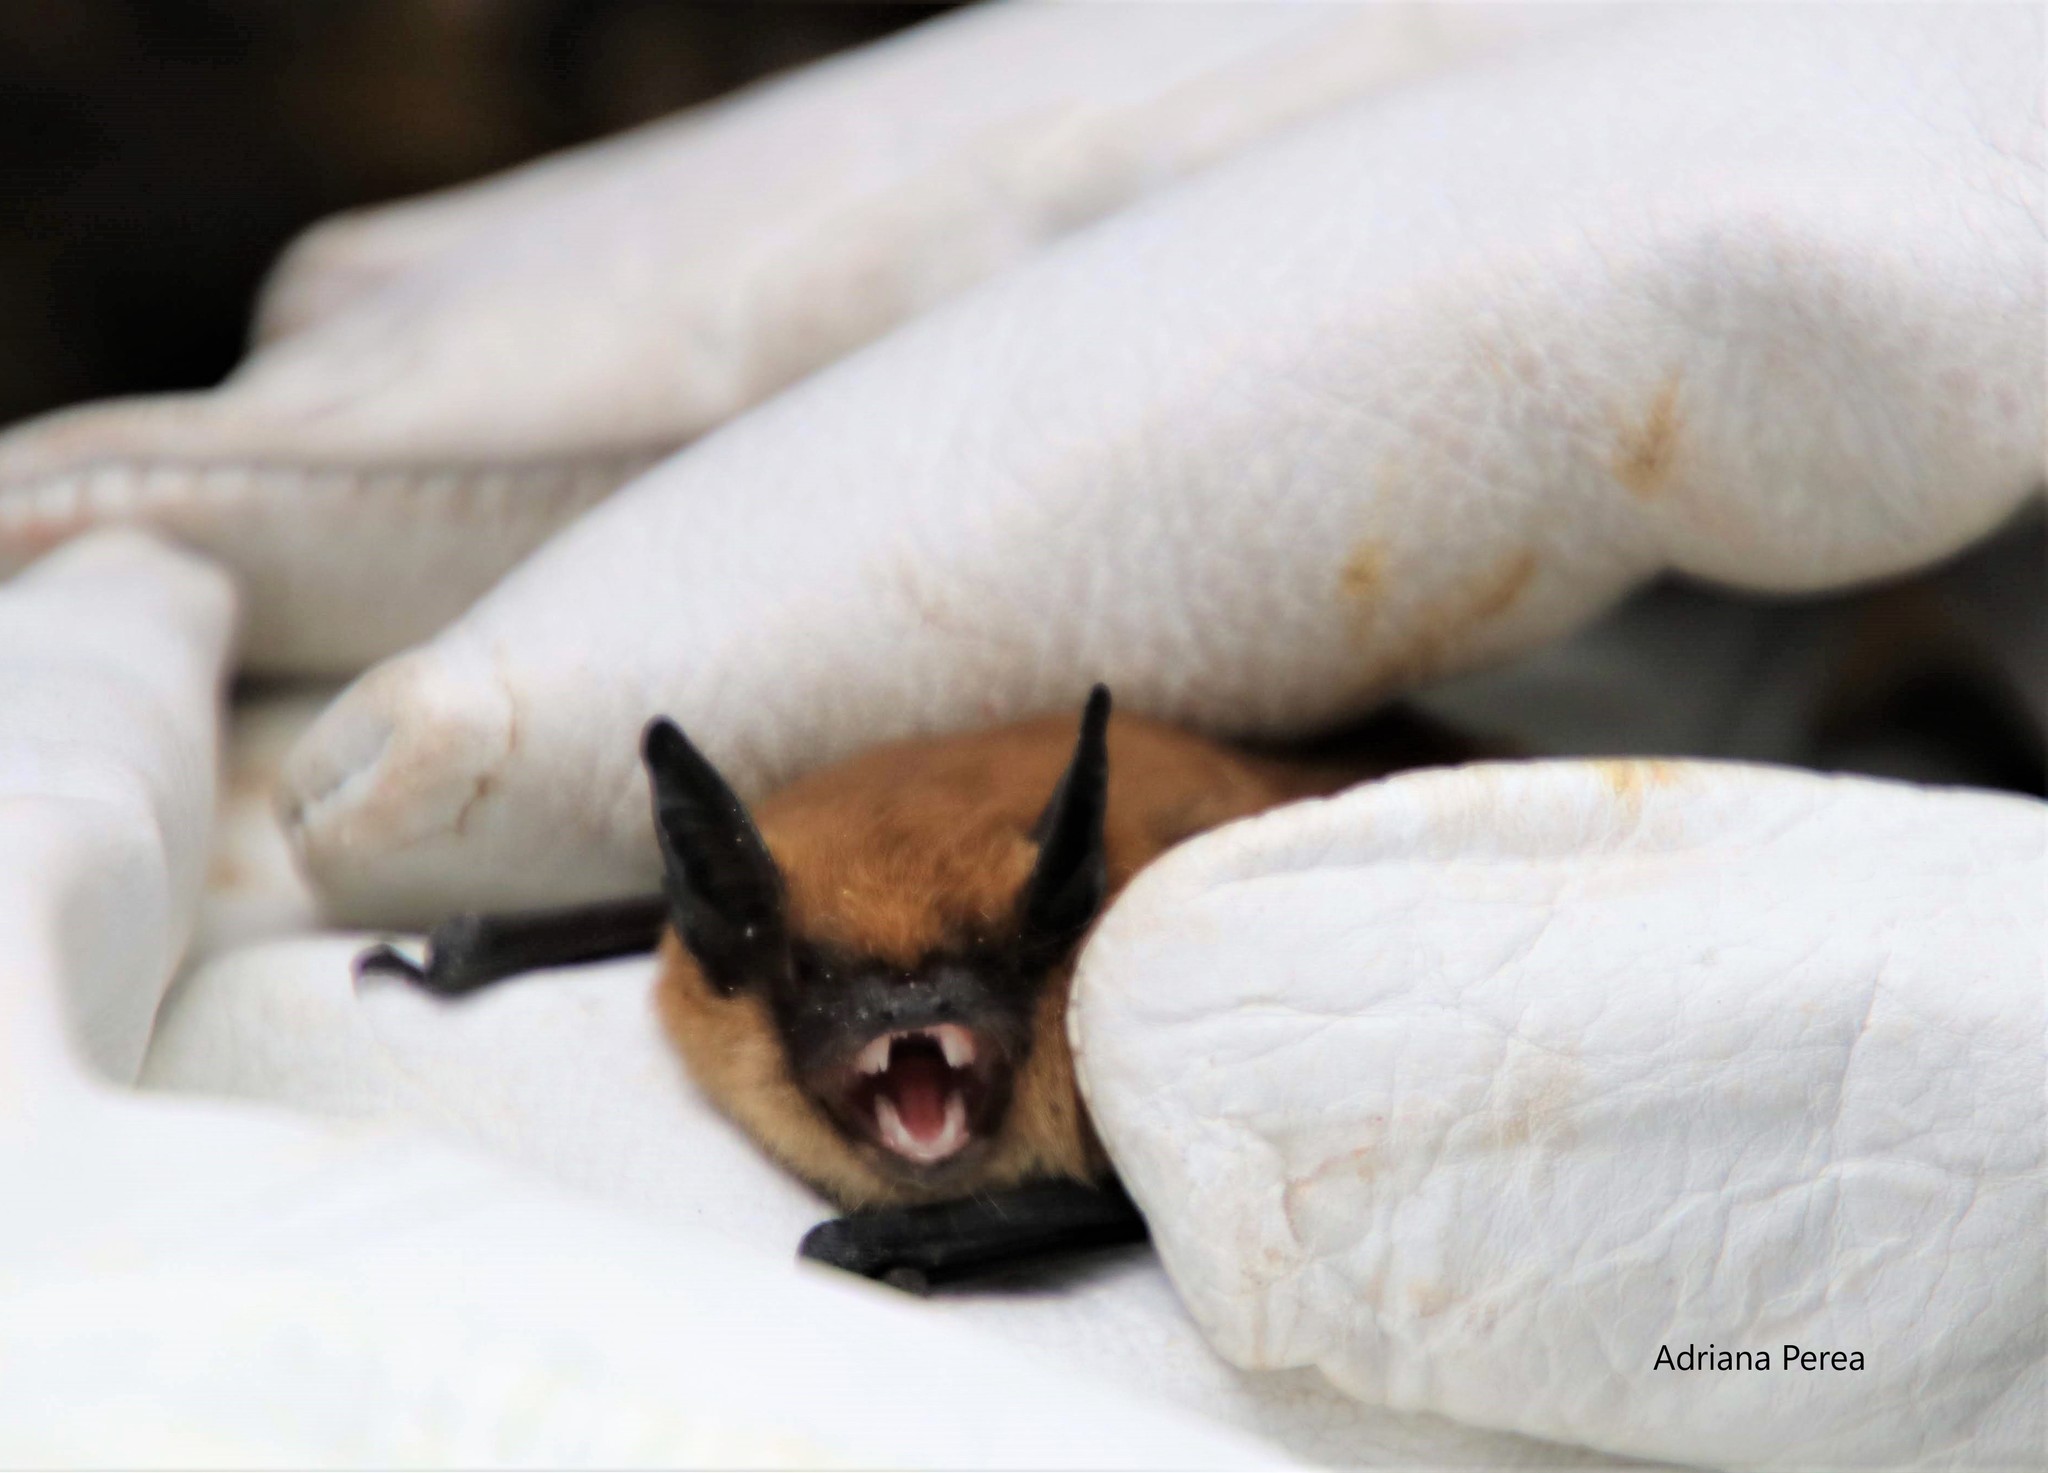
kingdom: Animalia
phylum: Chordata
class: Mammalia
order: Chiroptera
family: Vespertilionidae
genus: Myotis
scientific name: Myotis californicus
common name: Californian myotis
